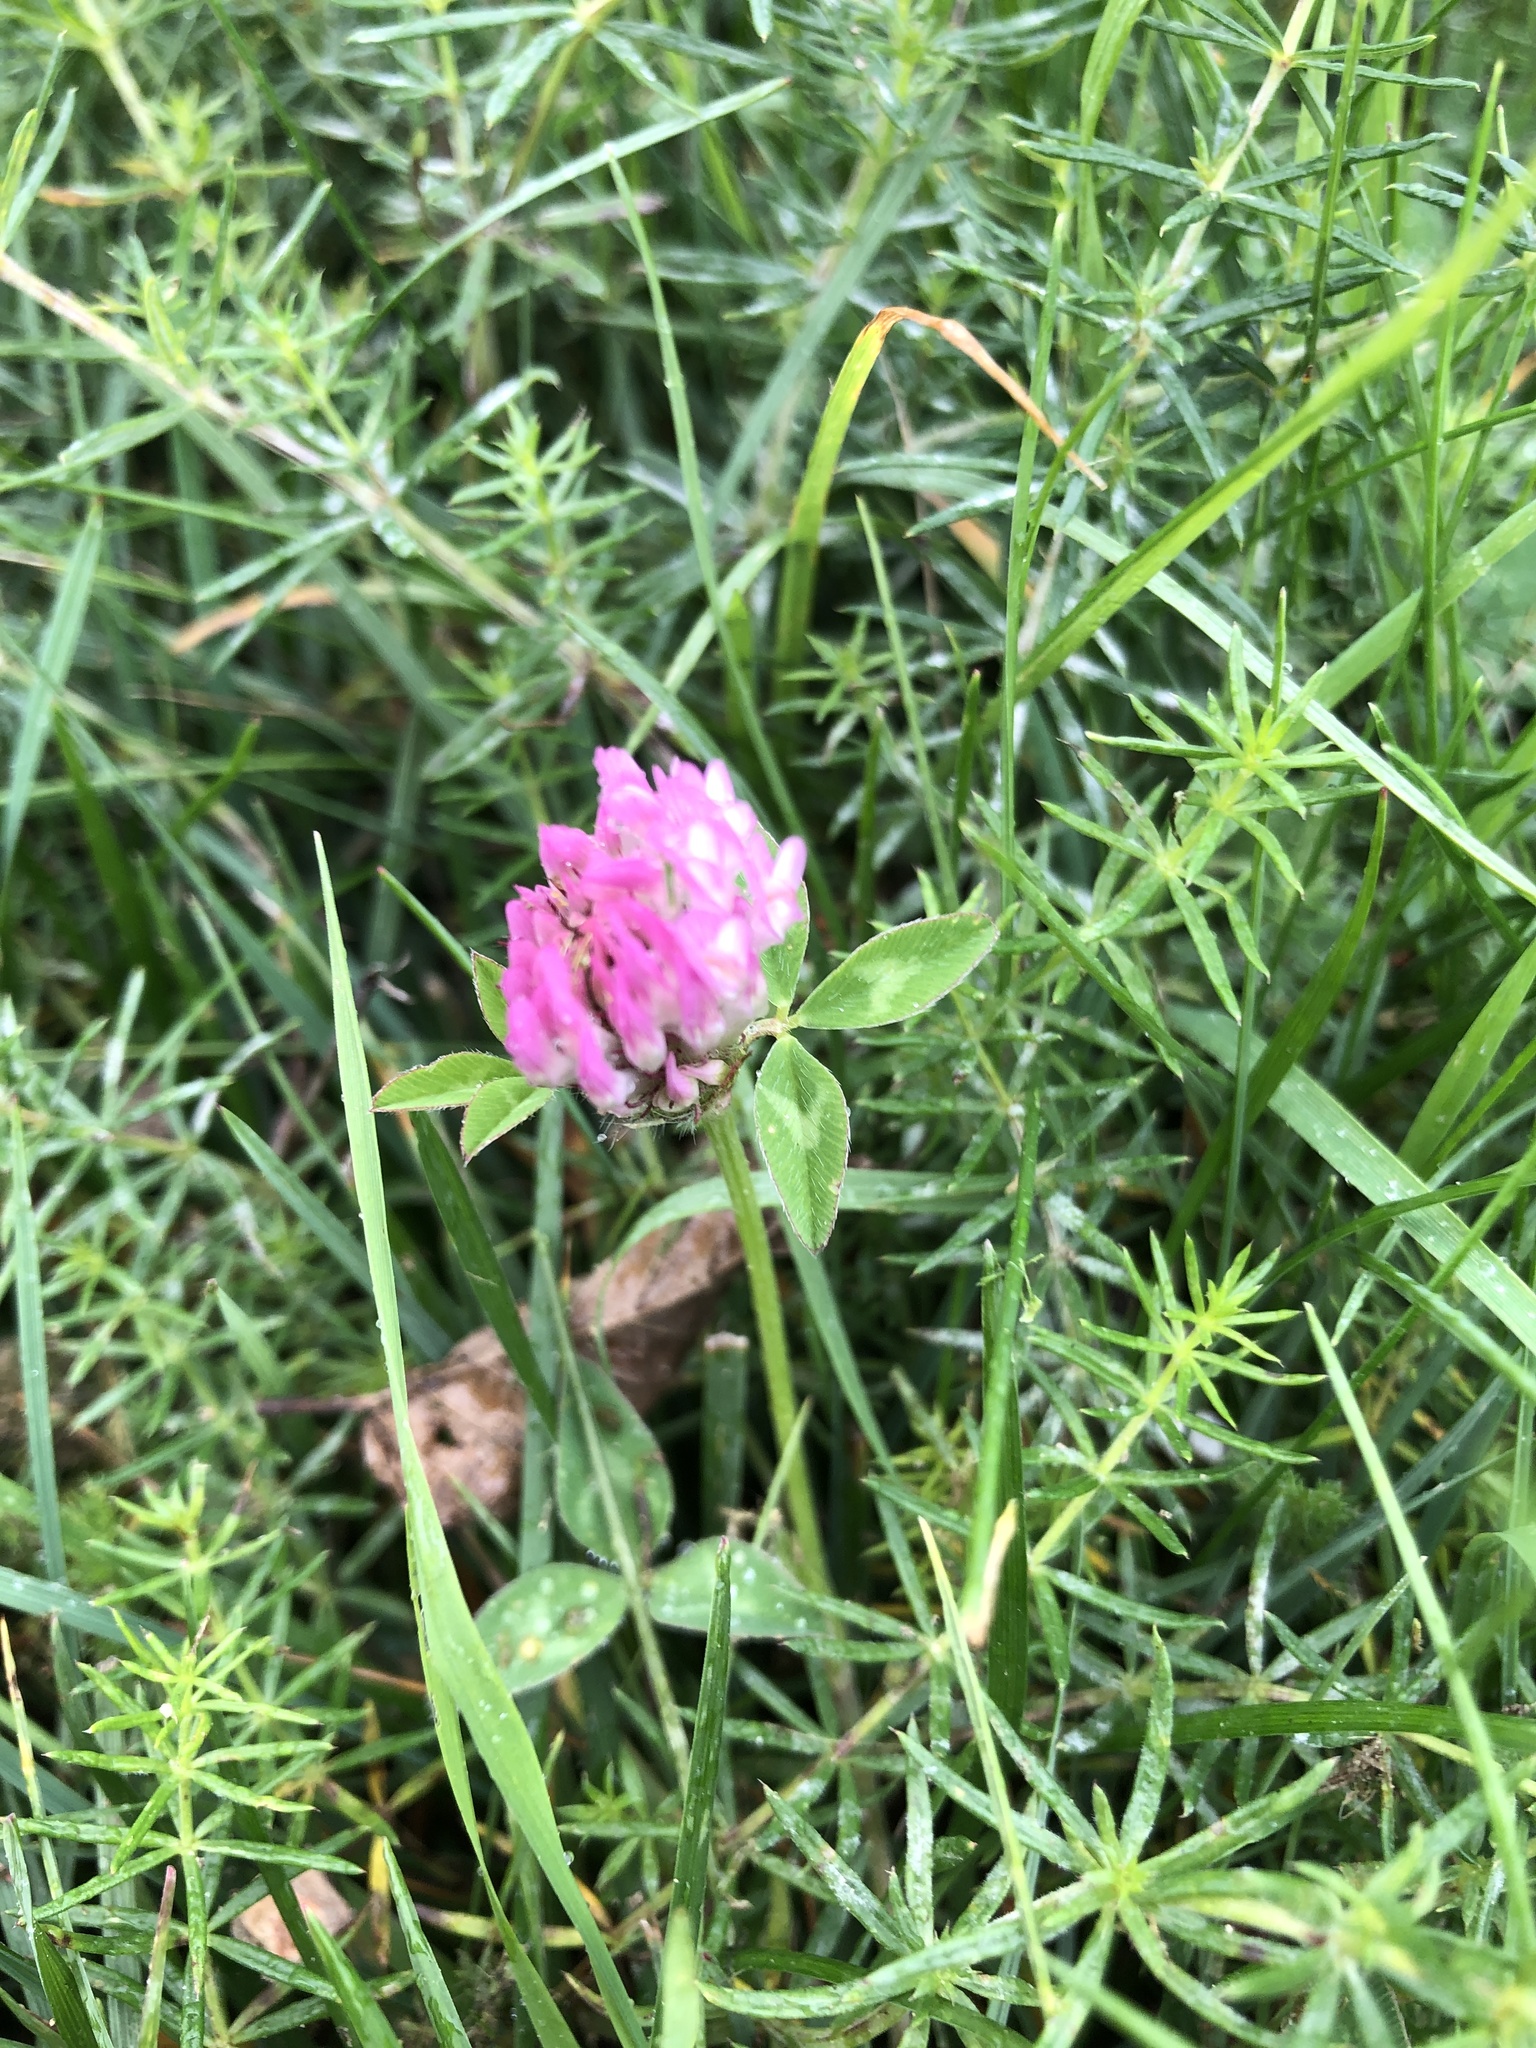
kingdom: Plantae
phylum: Tracheophyta
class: Magnoliopsida
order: Fabales
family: Fabaceae
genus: Trifolium
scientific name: Trifolium pratense
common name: Red clover
